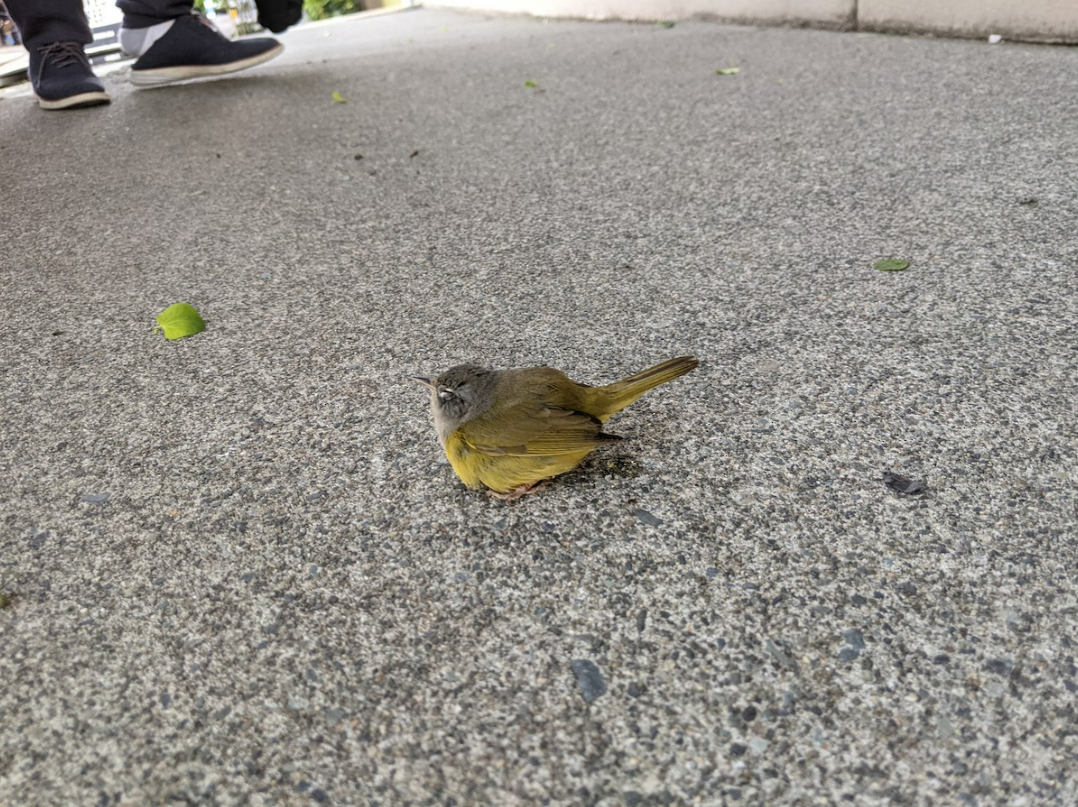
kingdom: Animalia
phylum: Chordata
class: Aves
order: Passeriformes
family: Parulidae
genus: Geothlypis
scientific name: Geothlypis tolmiei
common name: Macgillivray's warbler
